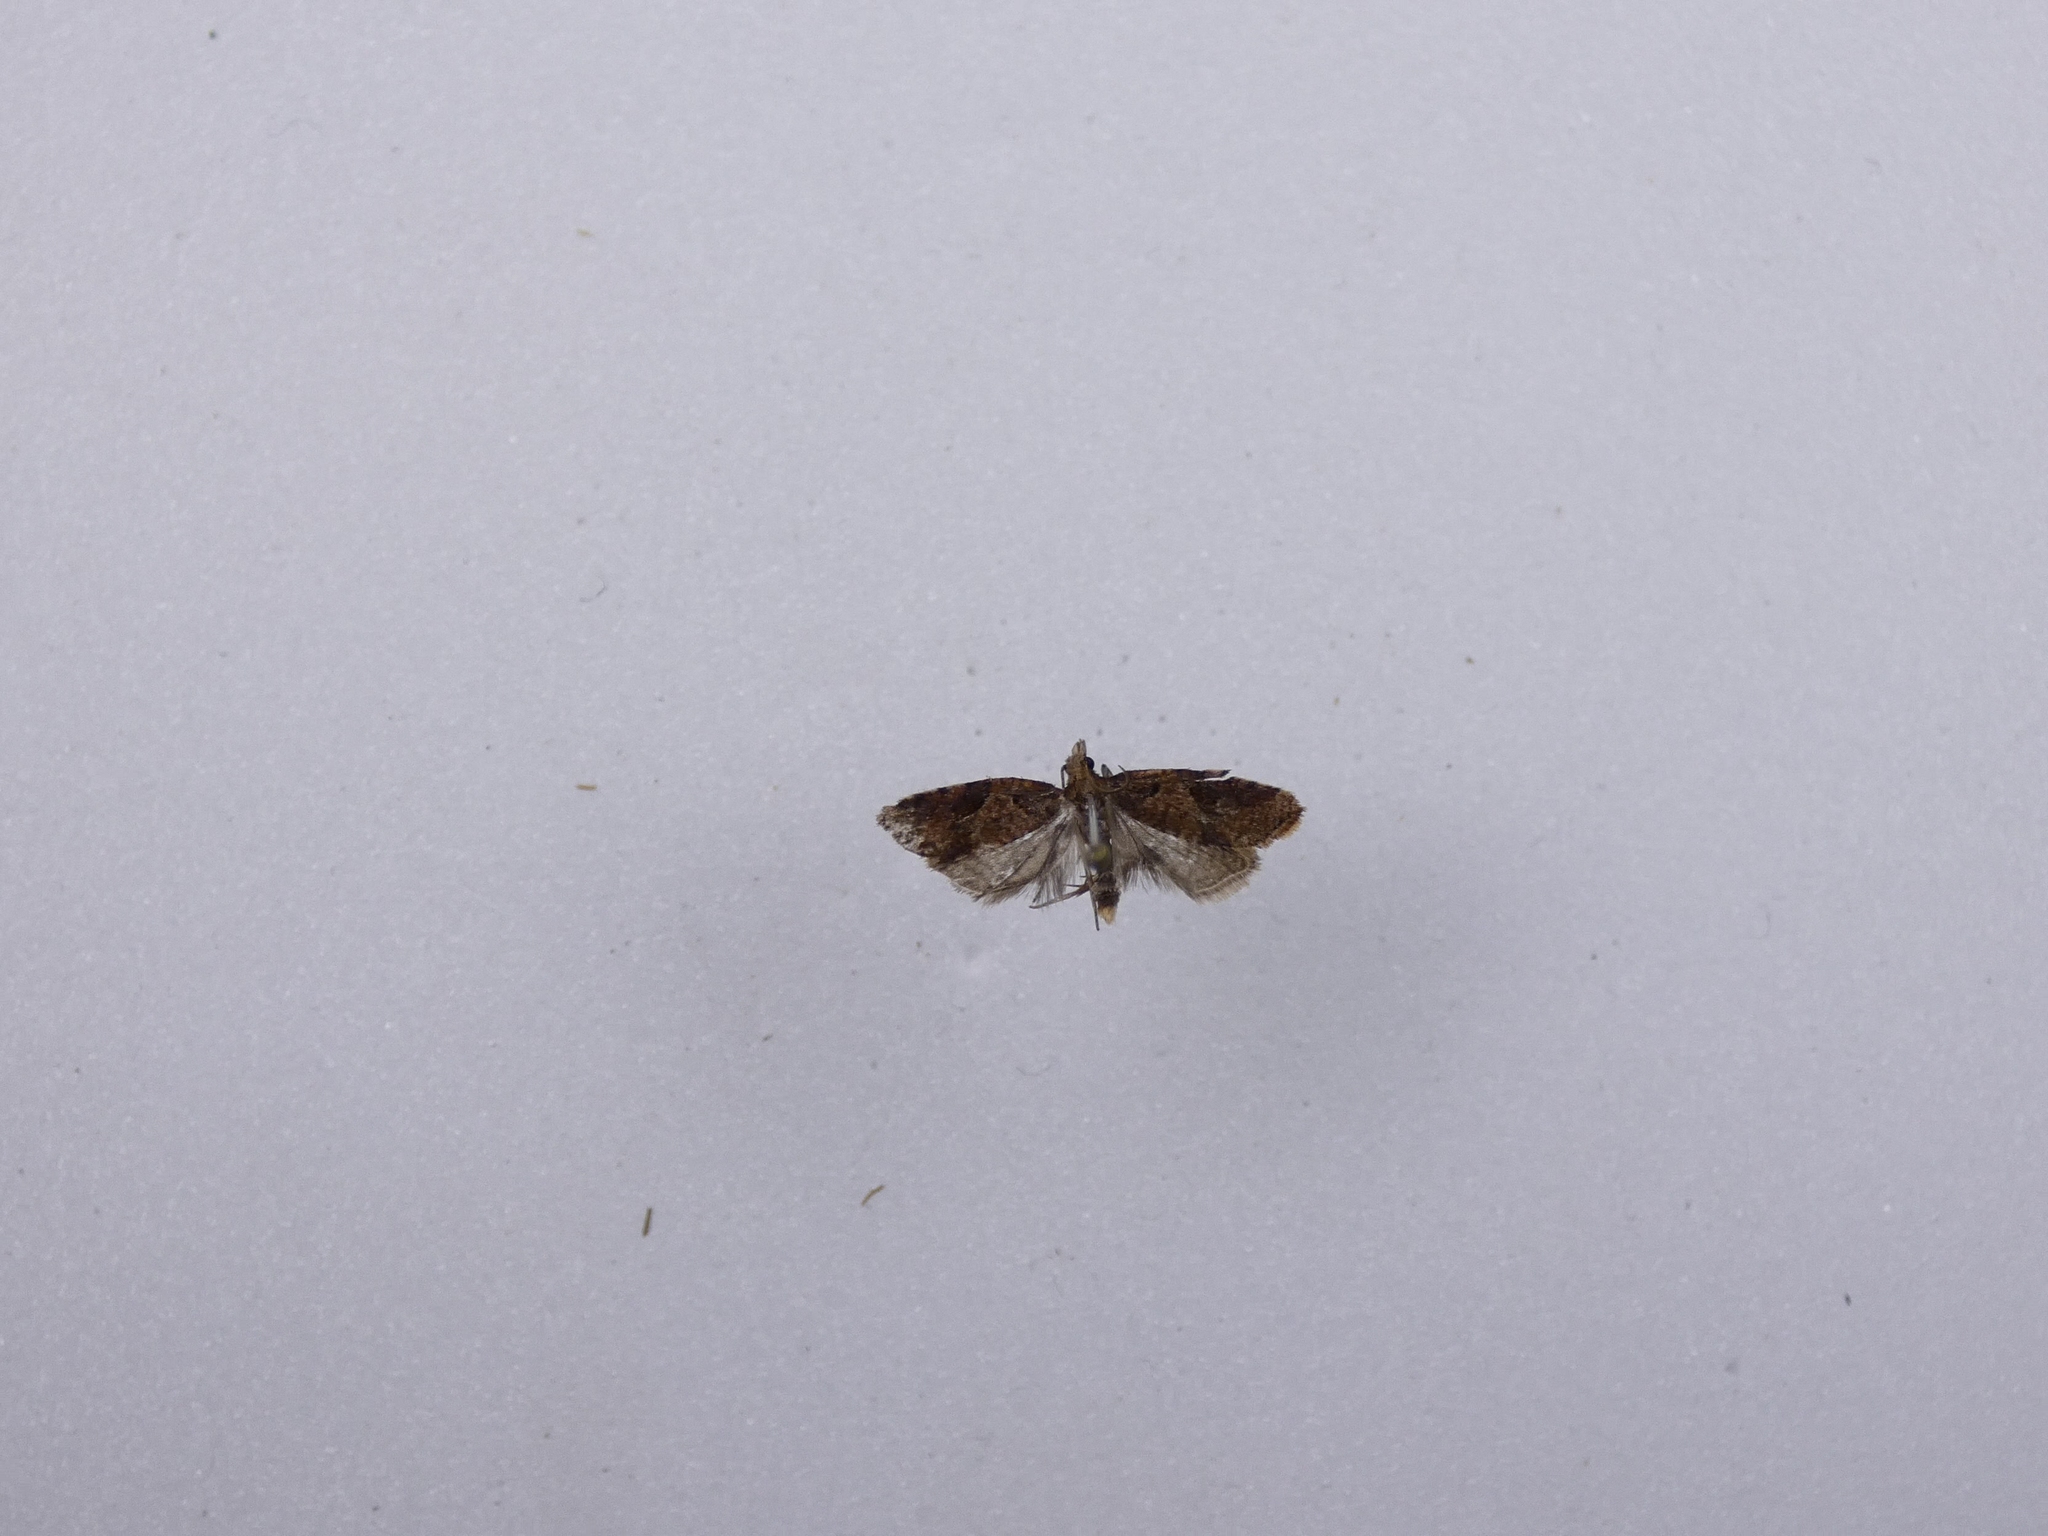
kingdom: Animalia
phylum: Arthropoda
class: Insecta
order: Lepidoptera
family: Tortricidae
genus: Capua
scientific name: Capua semiferana
